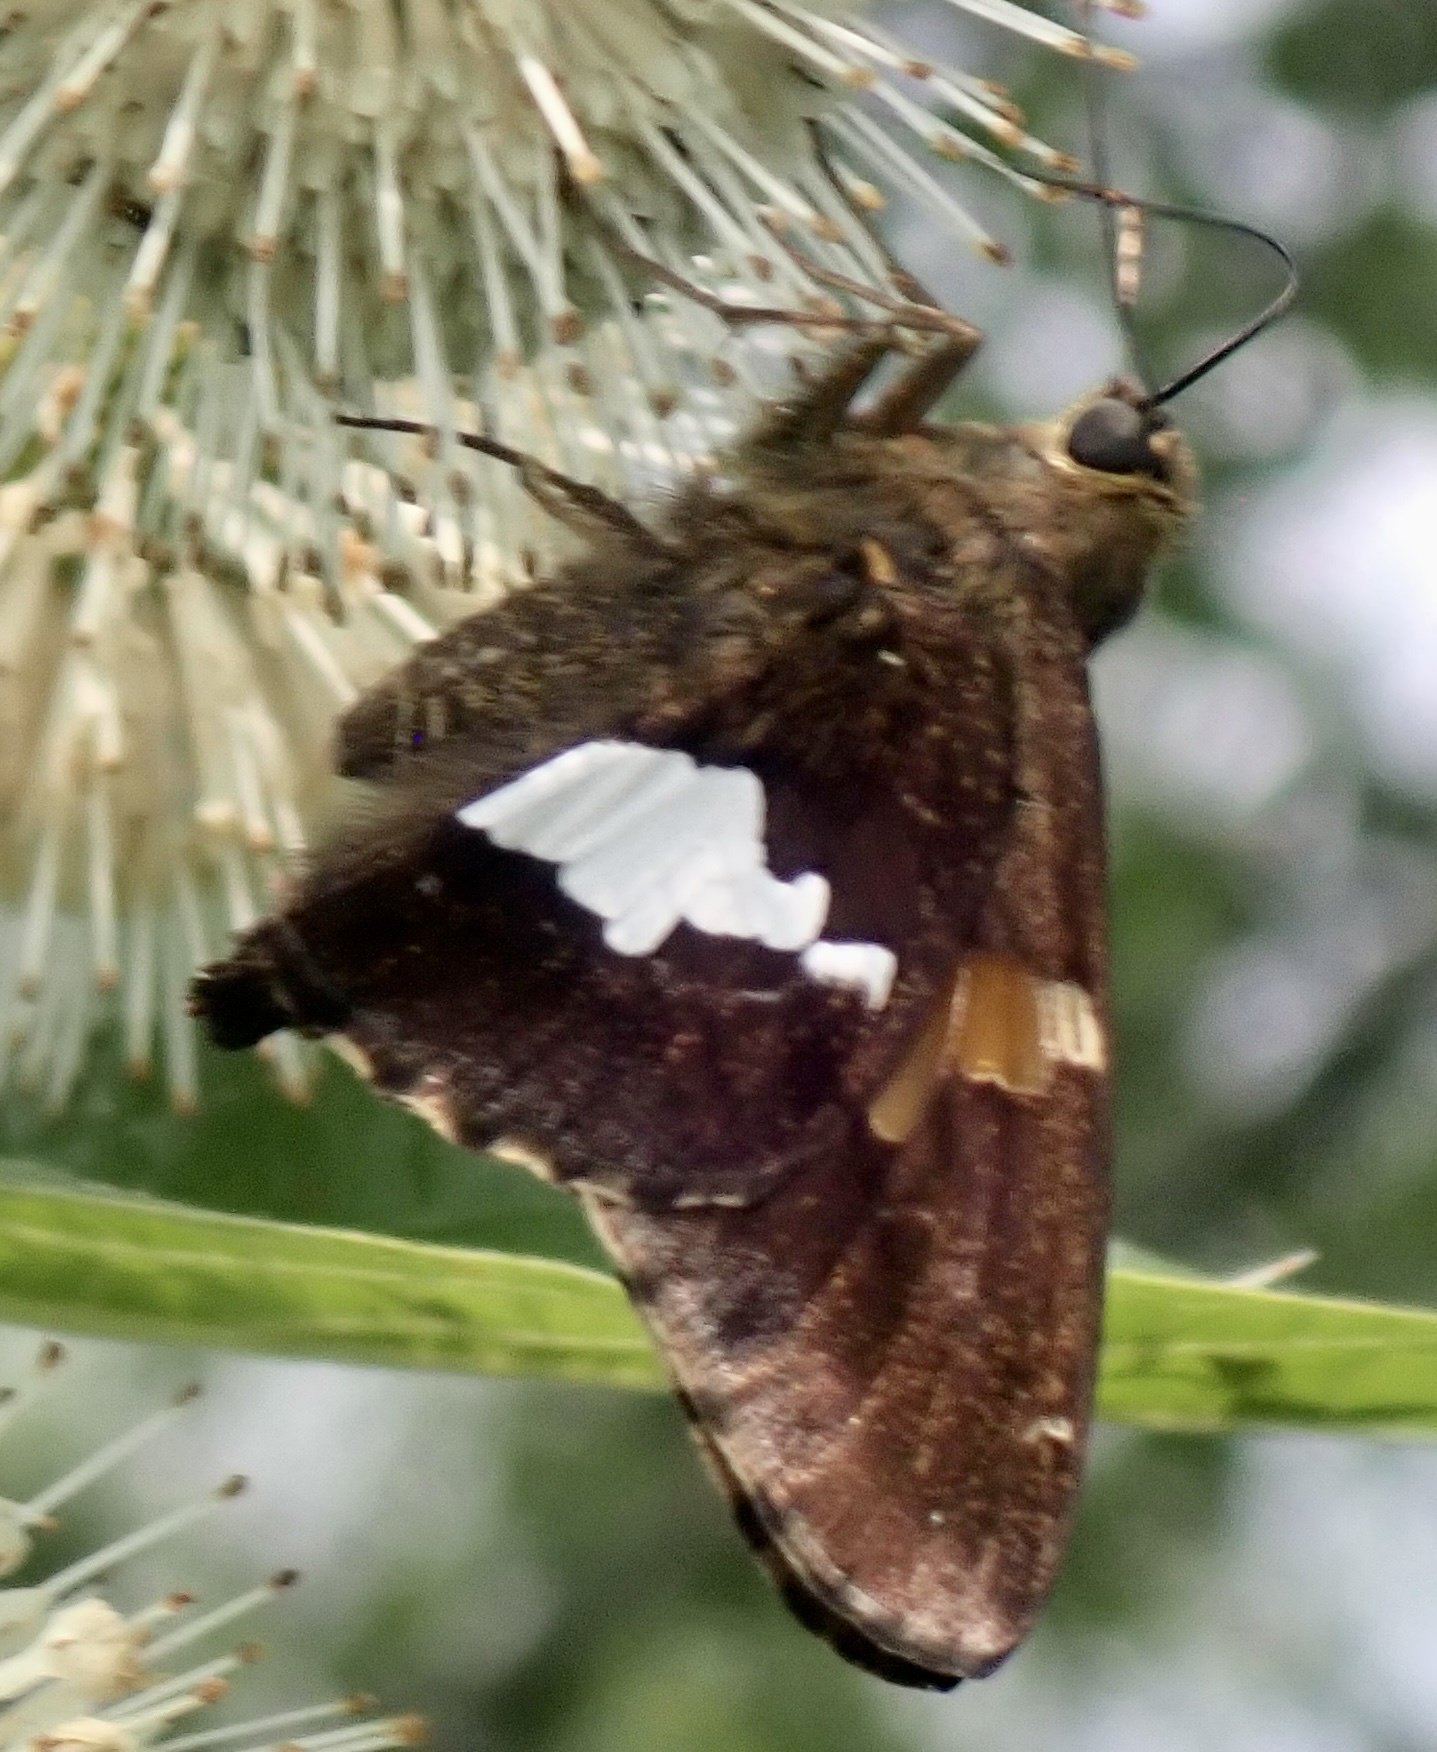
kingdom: Animalia
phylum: Arthropoda
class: Insecta
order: Lepidoptera
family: Hesperiidae
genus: Epargyreus
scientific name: Epargyreus clarus
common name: Silver-spotted skipper
